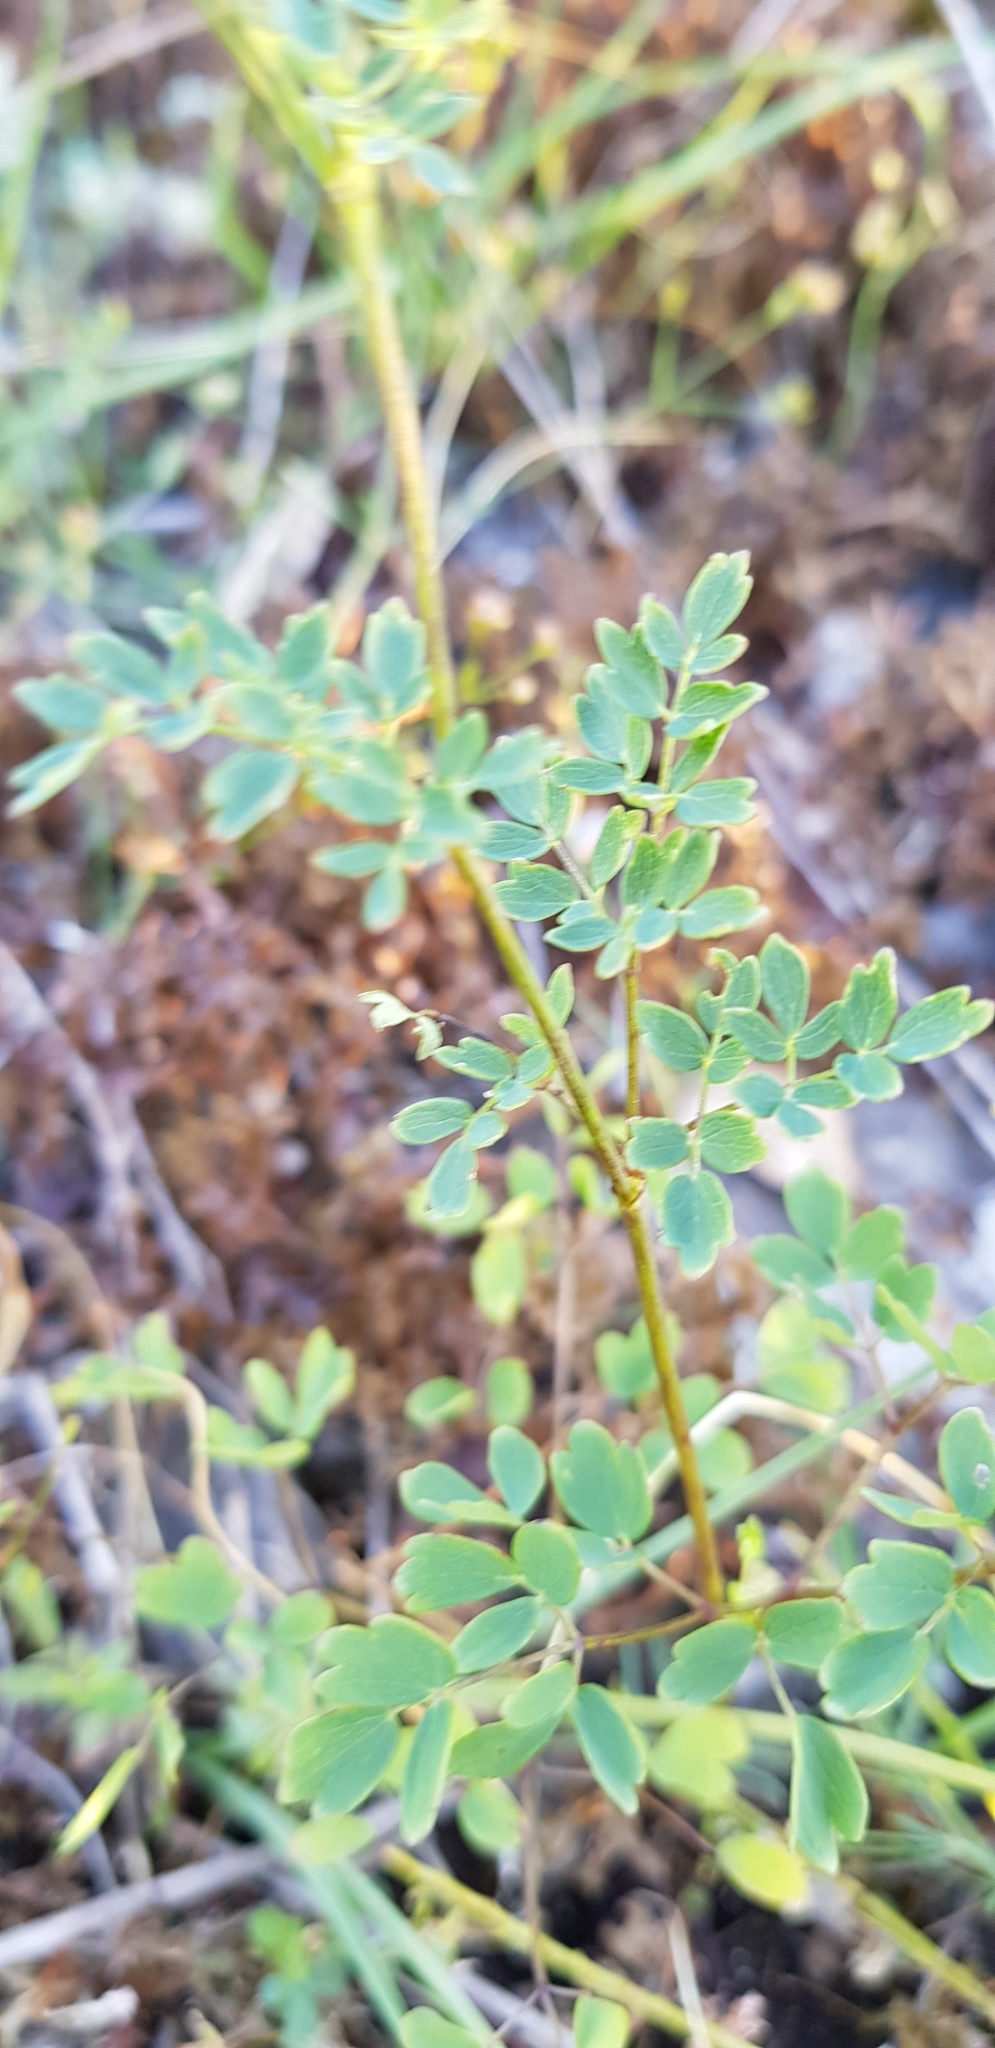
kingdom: Plantae
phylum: Tracheophyta
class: Magnoliopsida
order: Ranunculales
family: Ranunculaceae
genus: Thalictrum
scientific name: Thalictrum minus
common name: Lesser meadow-rue
